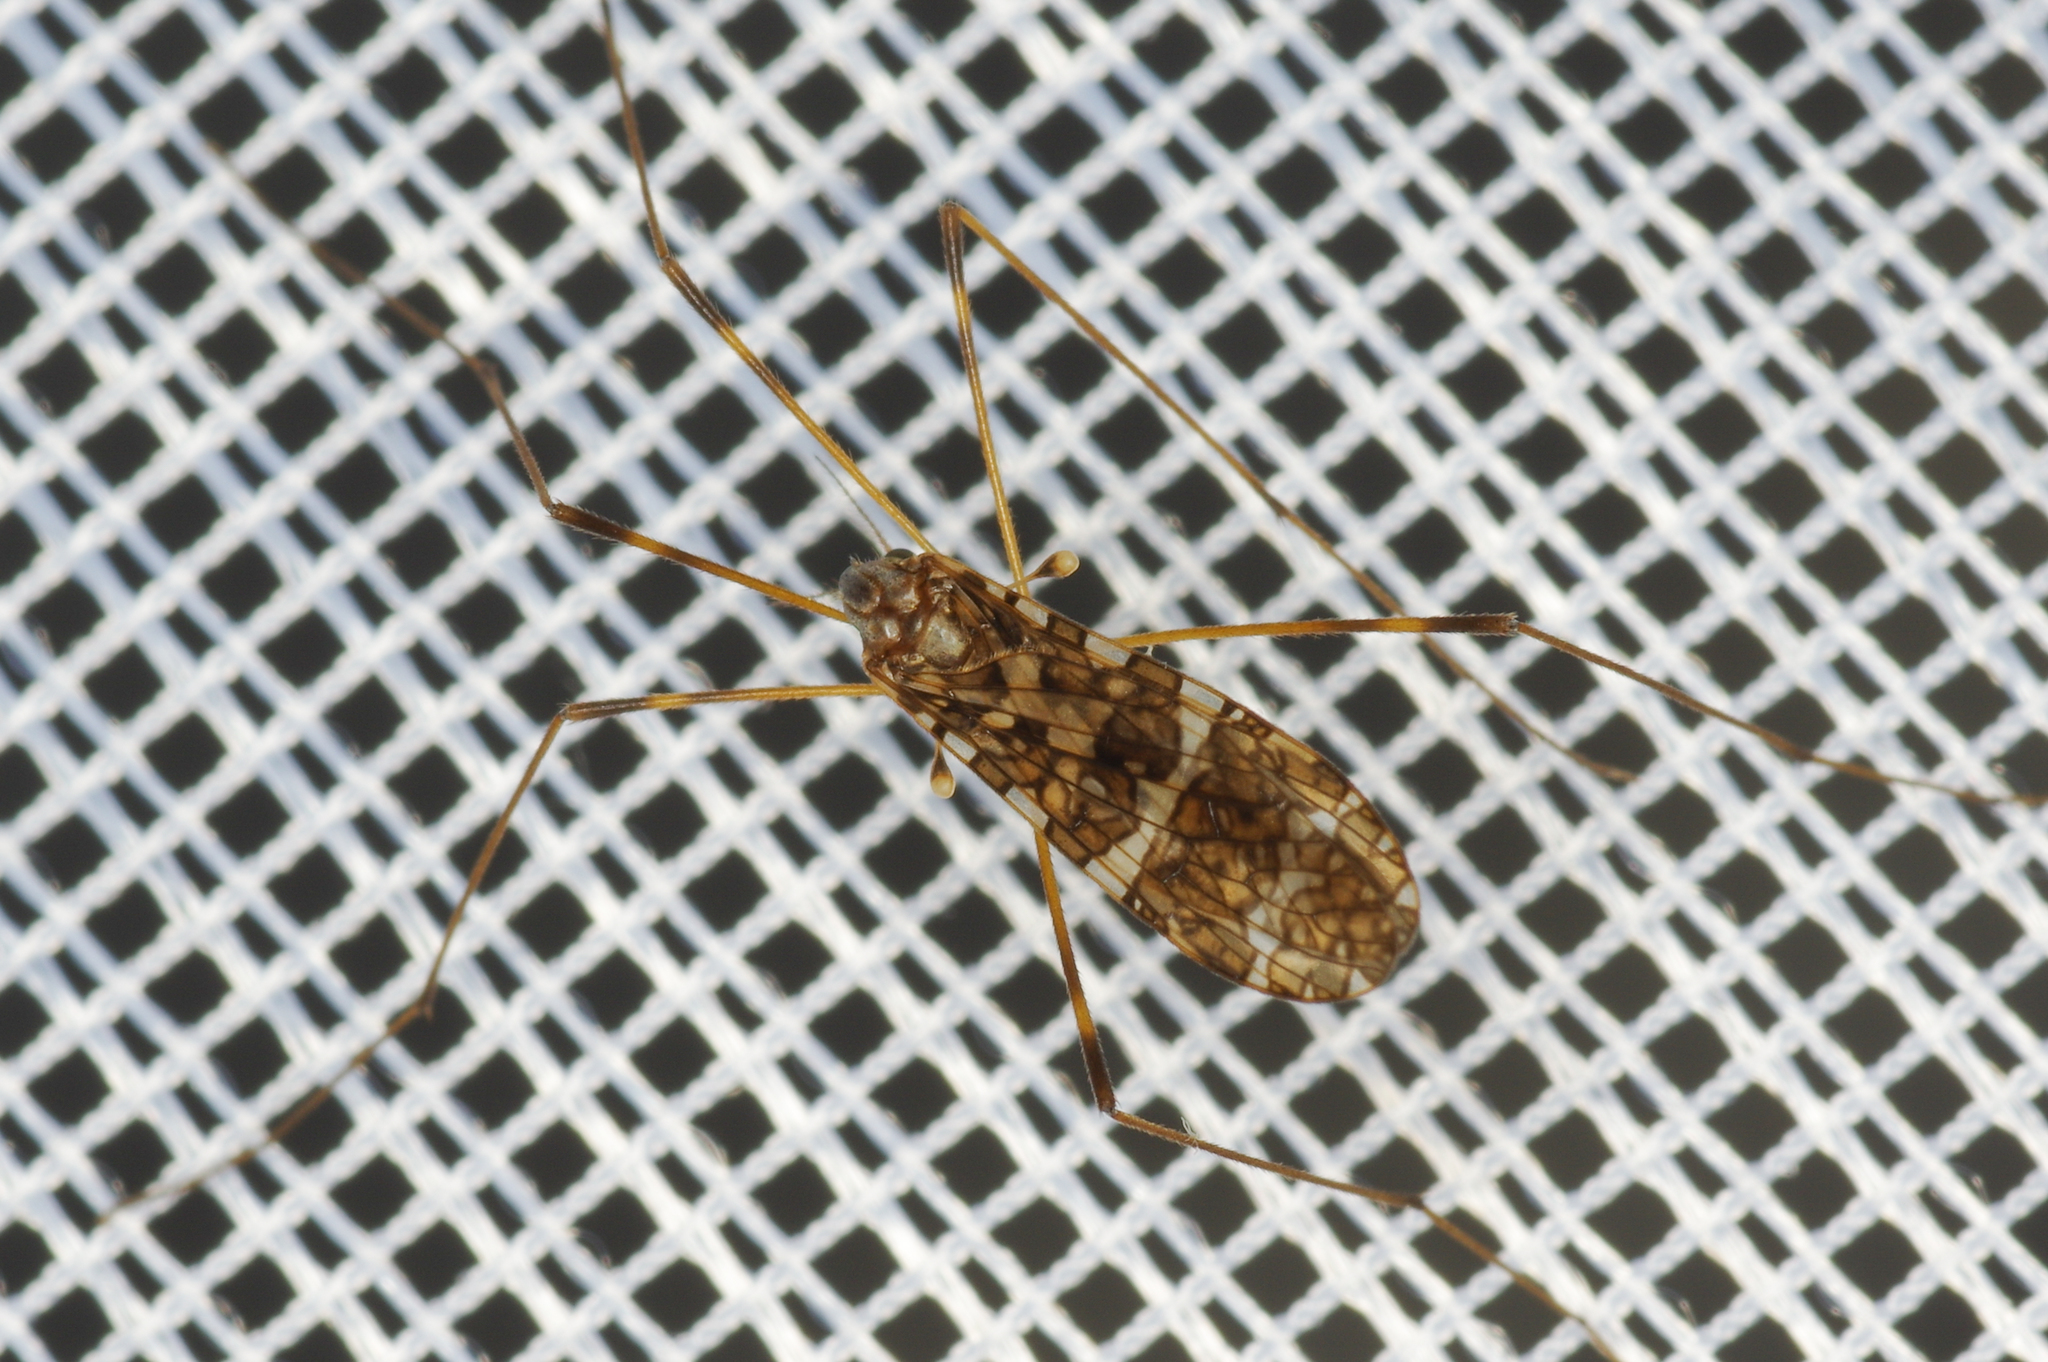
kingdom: Animalia
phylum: Arthropoda
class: Insecta
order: Diptera
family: Limoniidae
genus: Epiphragma
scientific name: Epiphragma fasciapenne
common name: Band-winged crane fly
